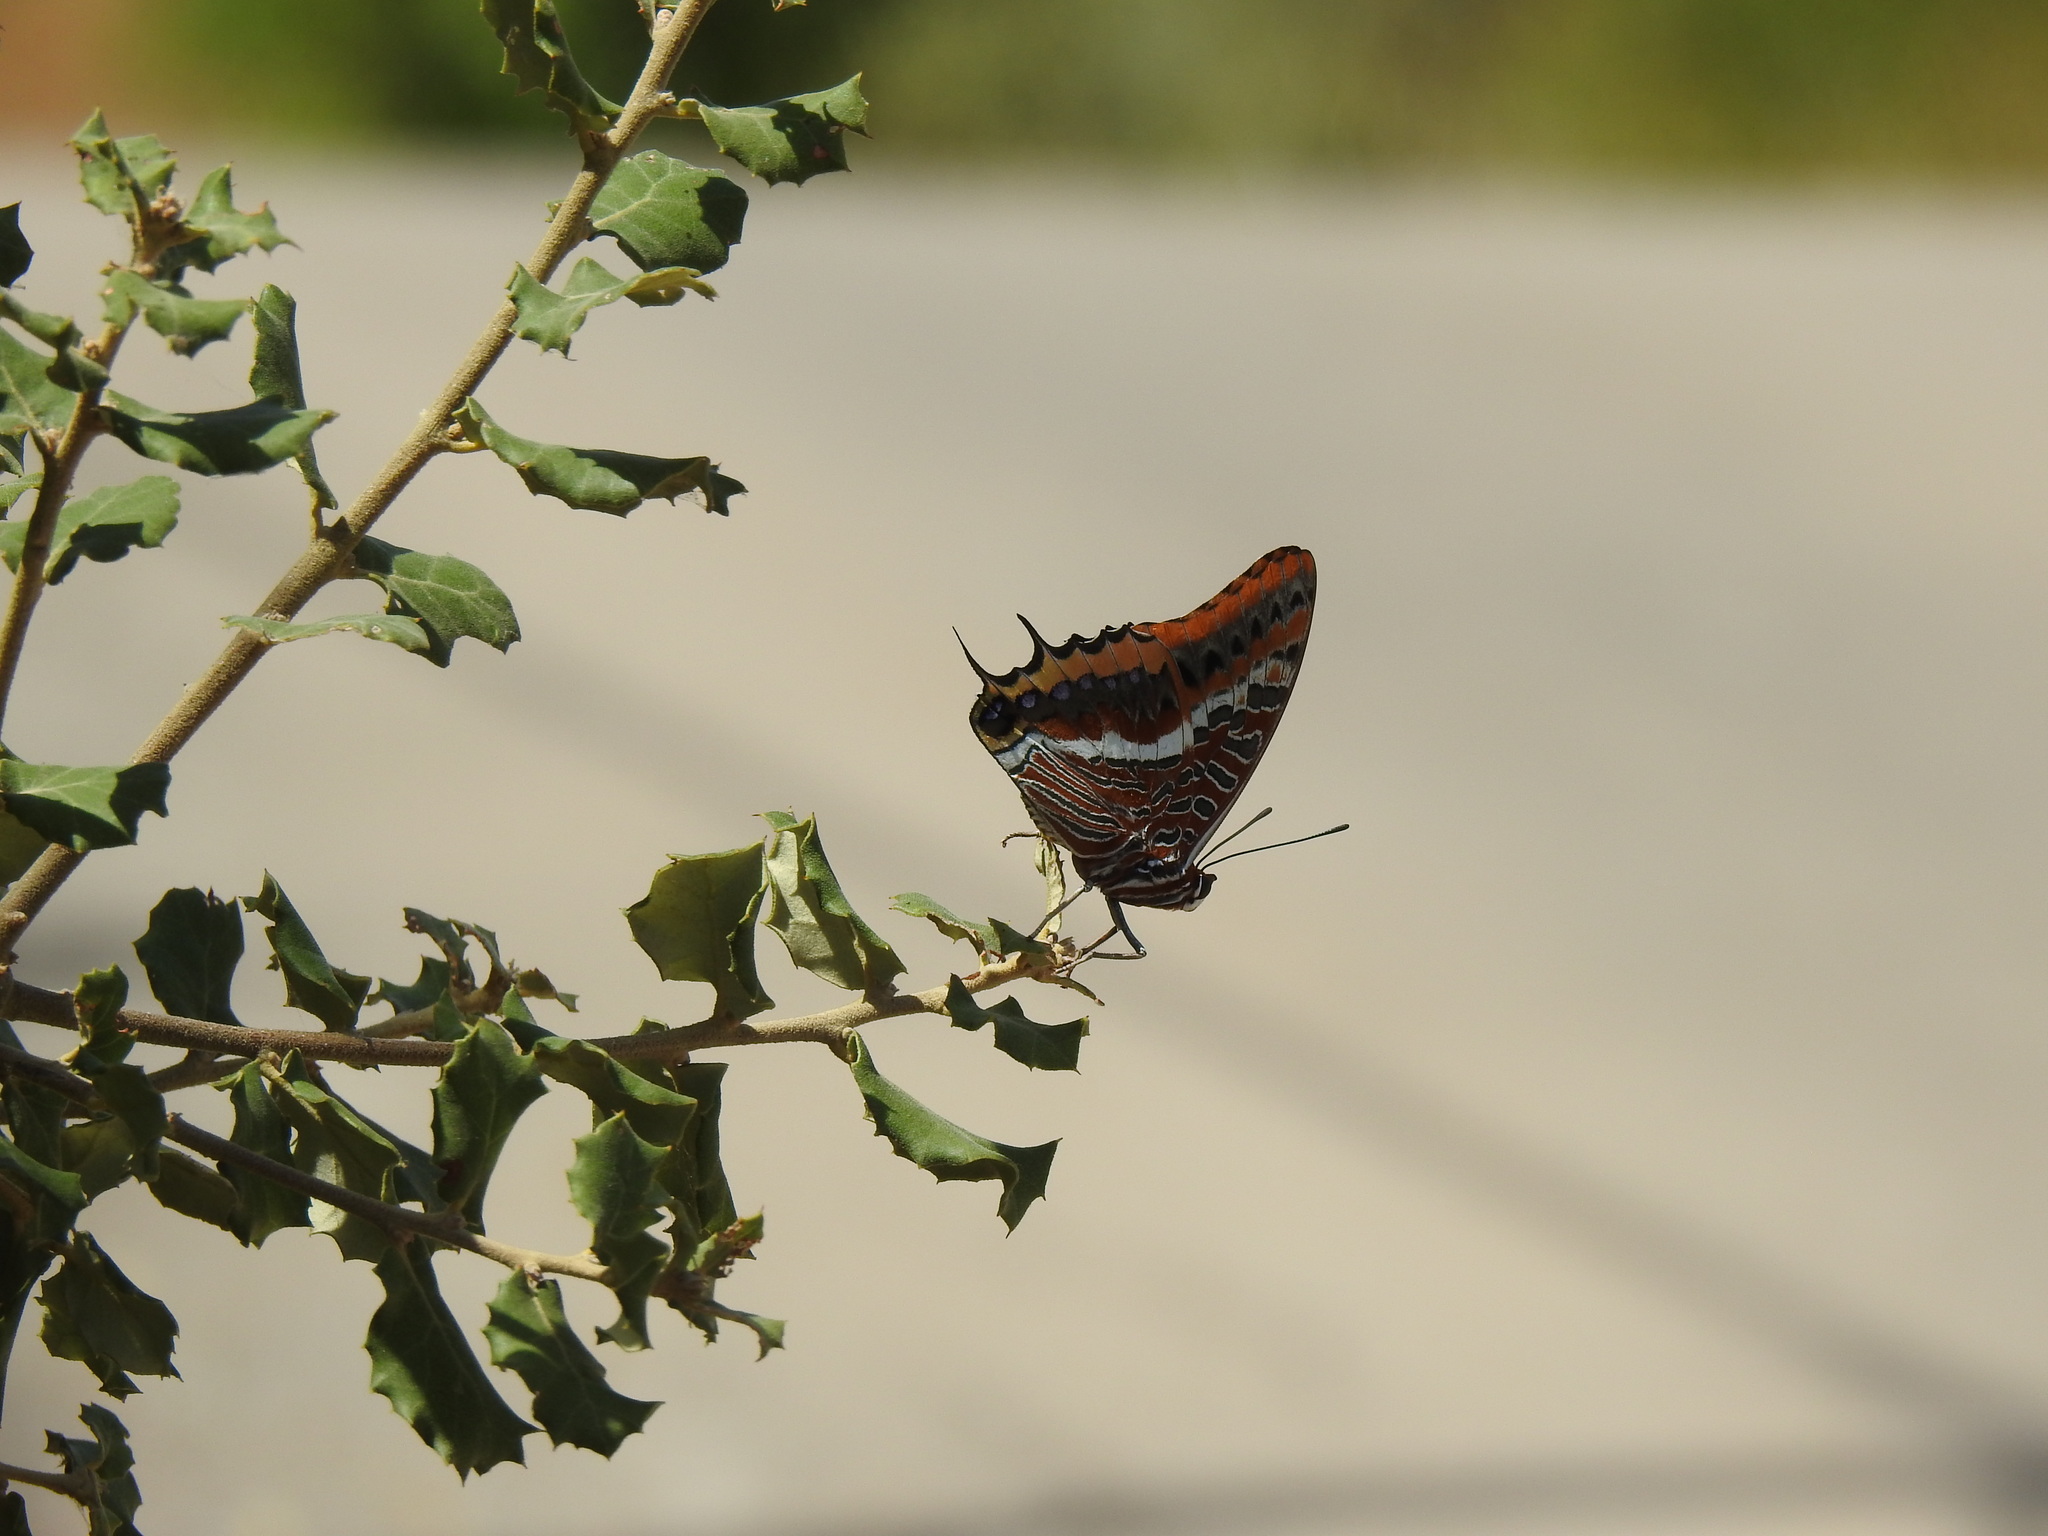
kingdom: Animalia
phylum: Arthropoda
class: Insecta
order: Lepidoptera
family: Nymphalidae
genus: Charaxes
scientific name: Charaxes jasius
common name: Two tailed pasha
